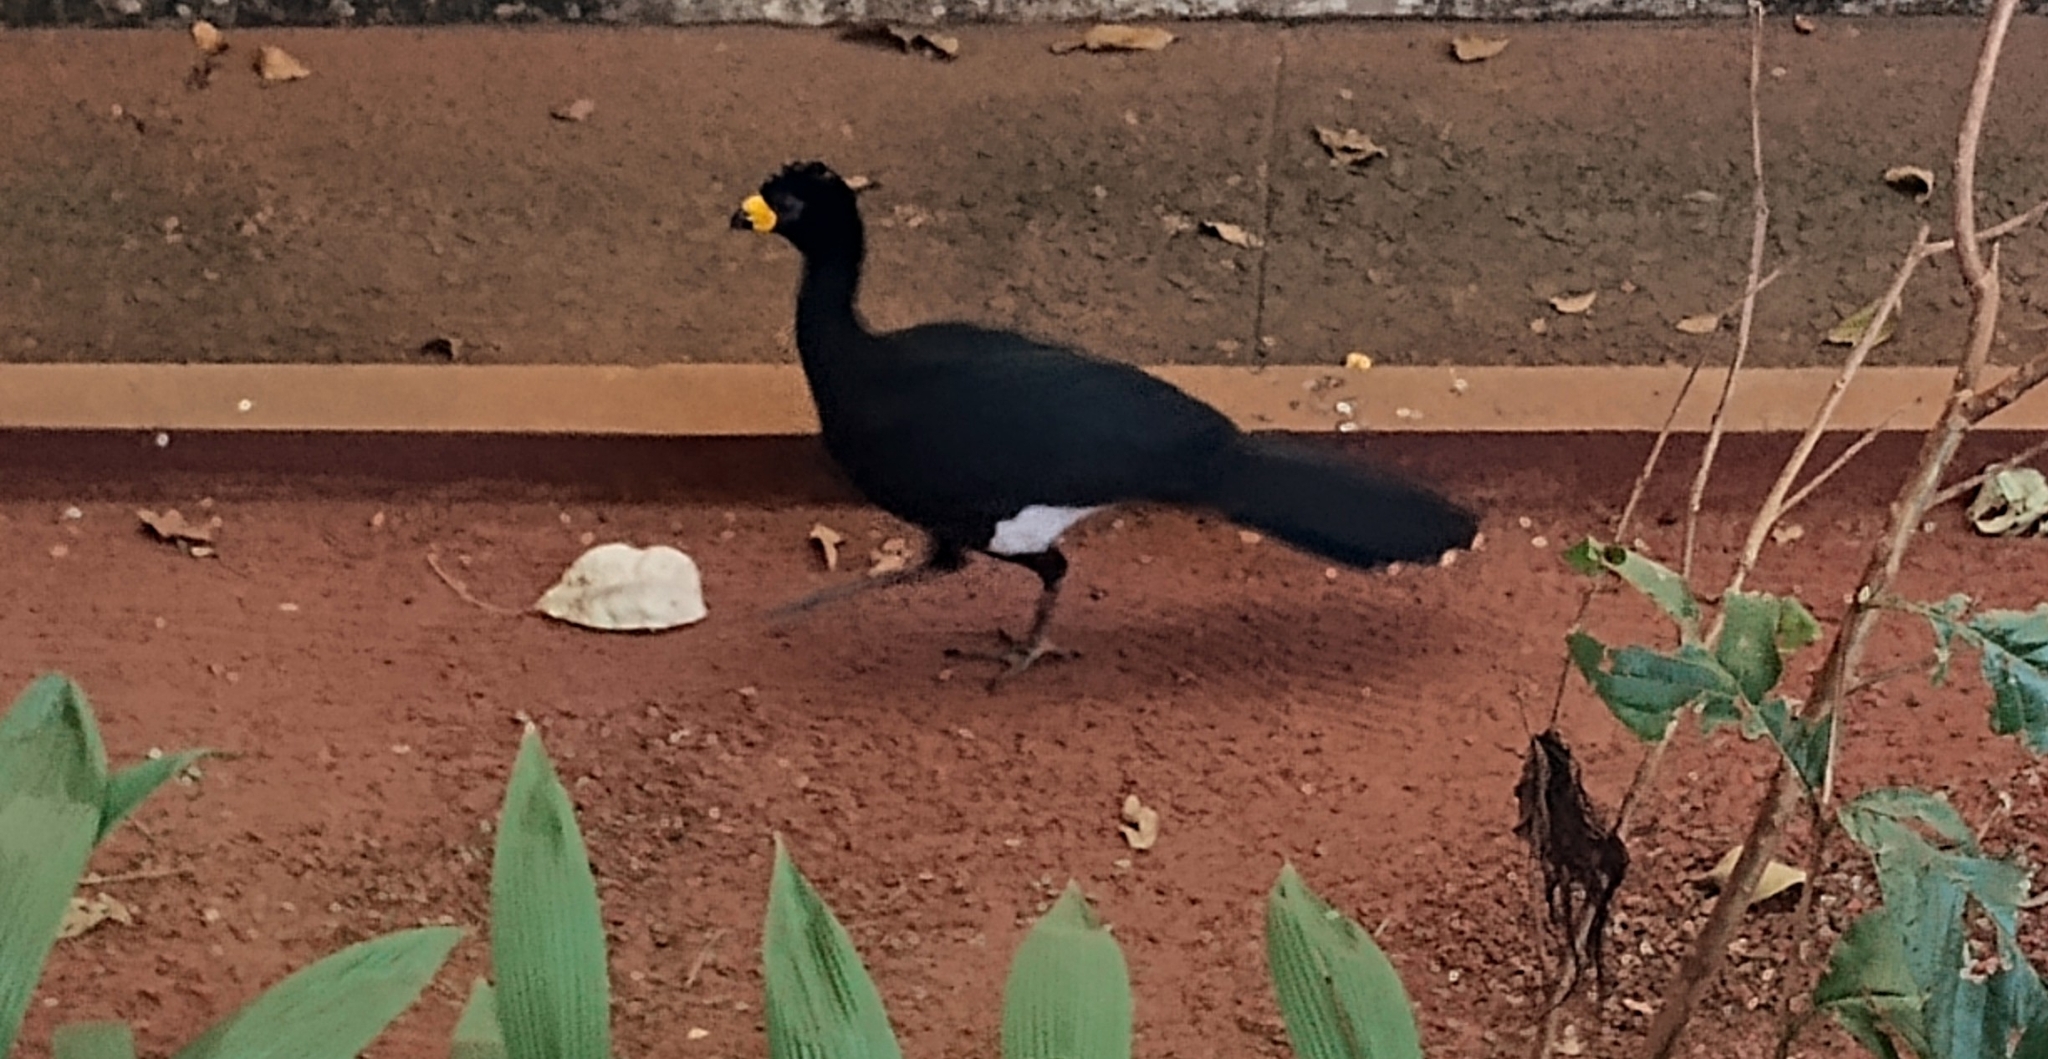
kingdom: Animalia
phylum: Chordata
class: Aves
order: Galliformes
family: Cracidae
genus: Crax
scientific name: Crax fasciolata
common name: Bare-faced curassow
